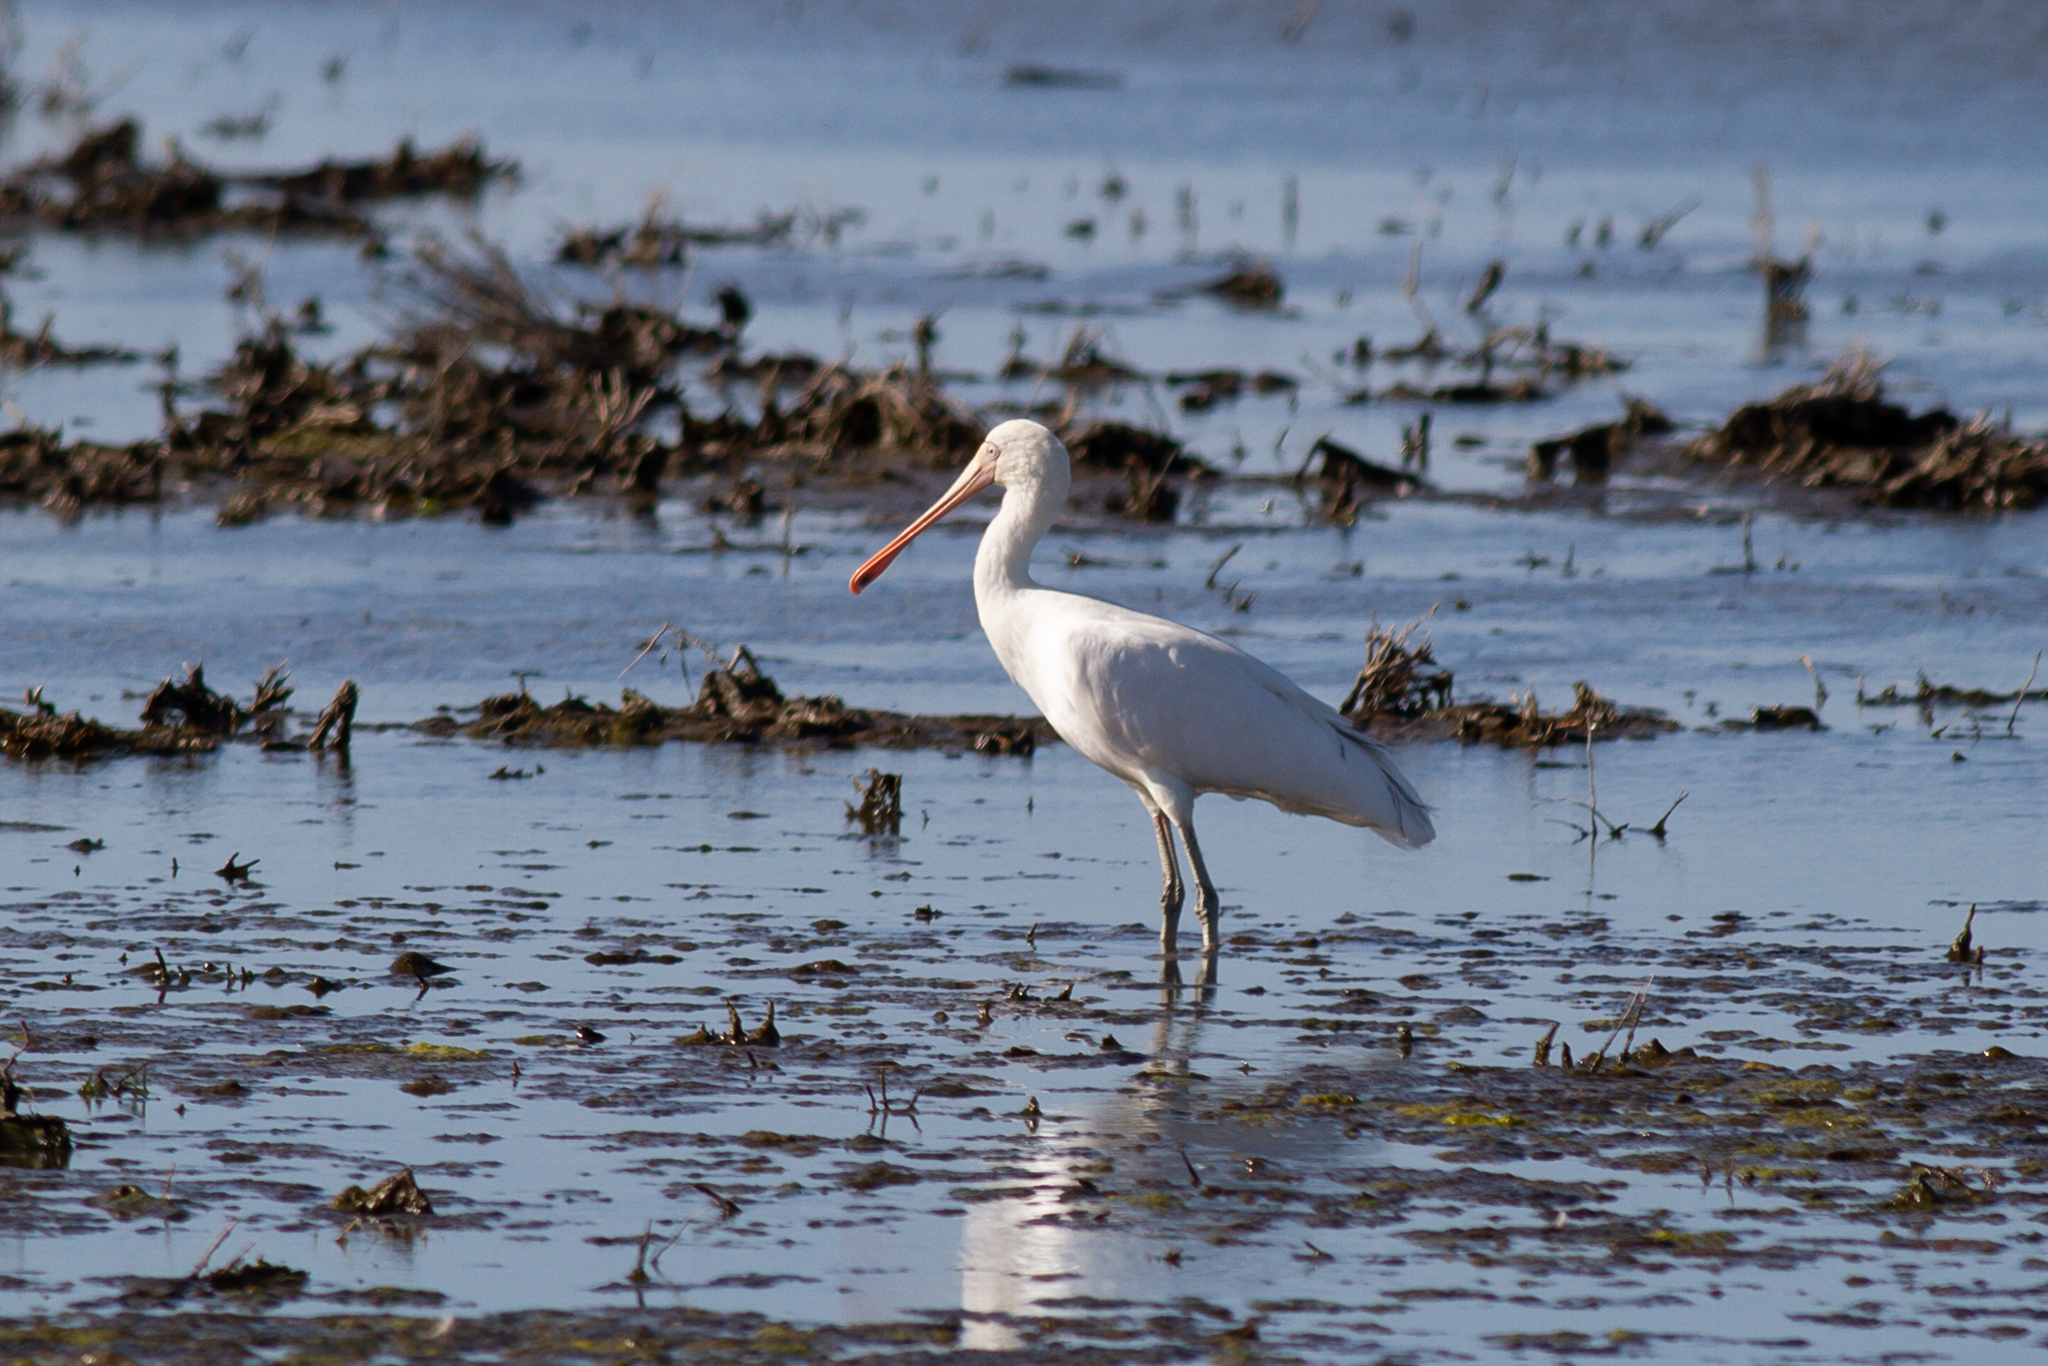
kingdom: Animalia
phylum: Chordata
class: Aves
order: Pelecaniformes
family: Threskiornithidae
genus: Platalea
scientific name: Platalea flavipes
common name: Yellow-billed spoonbill
